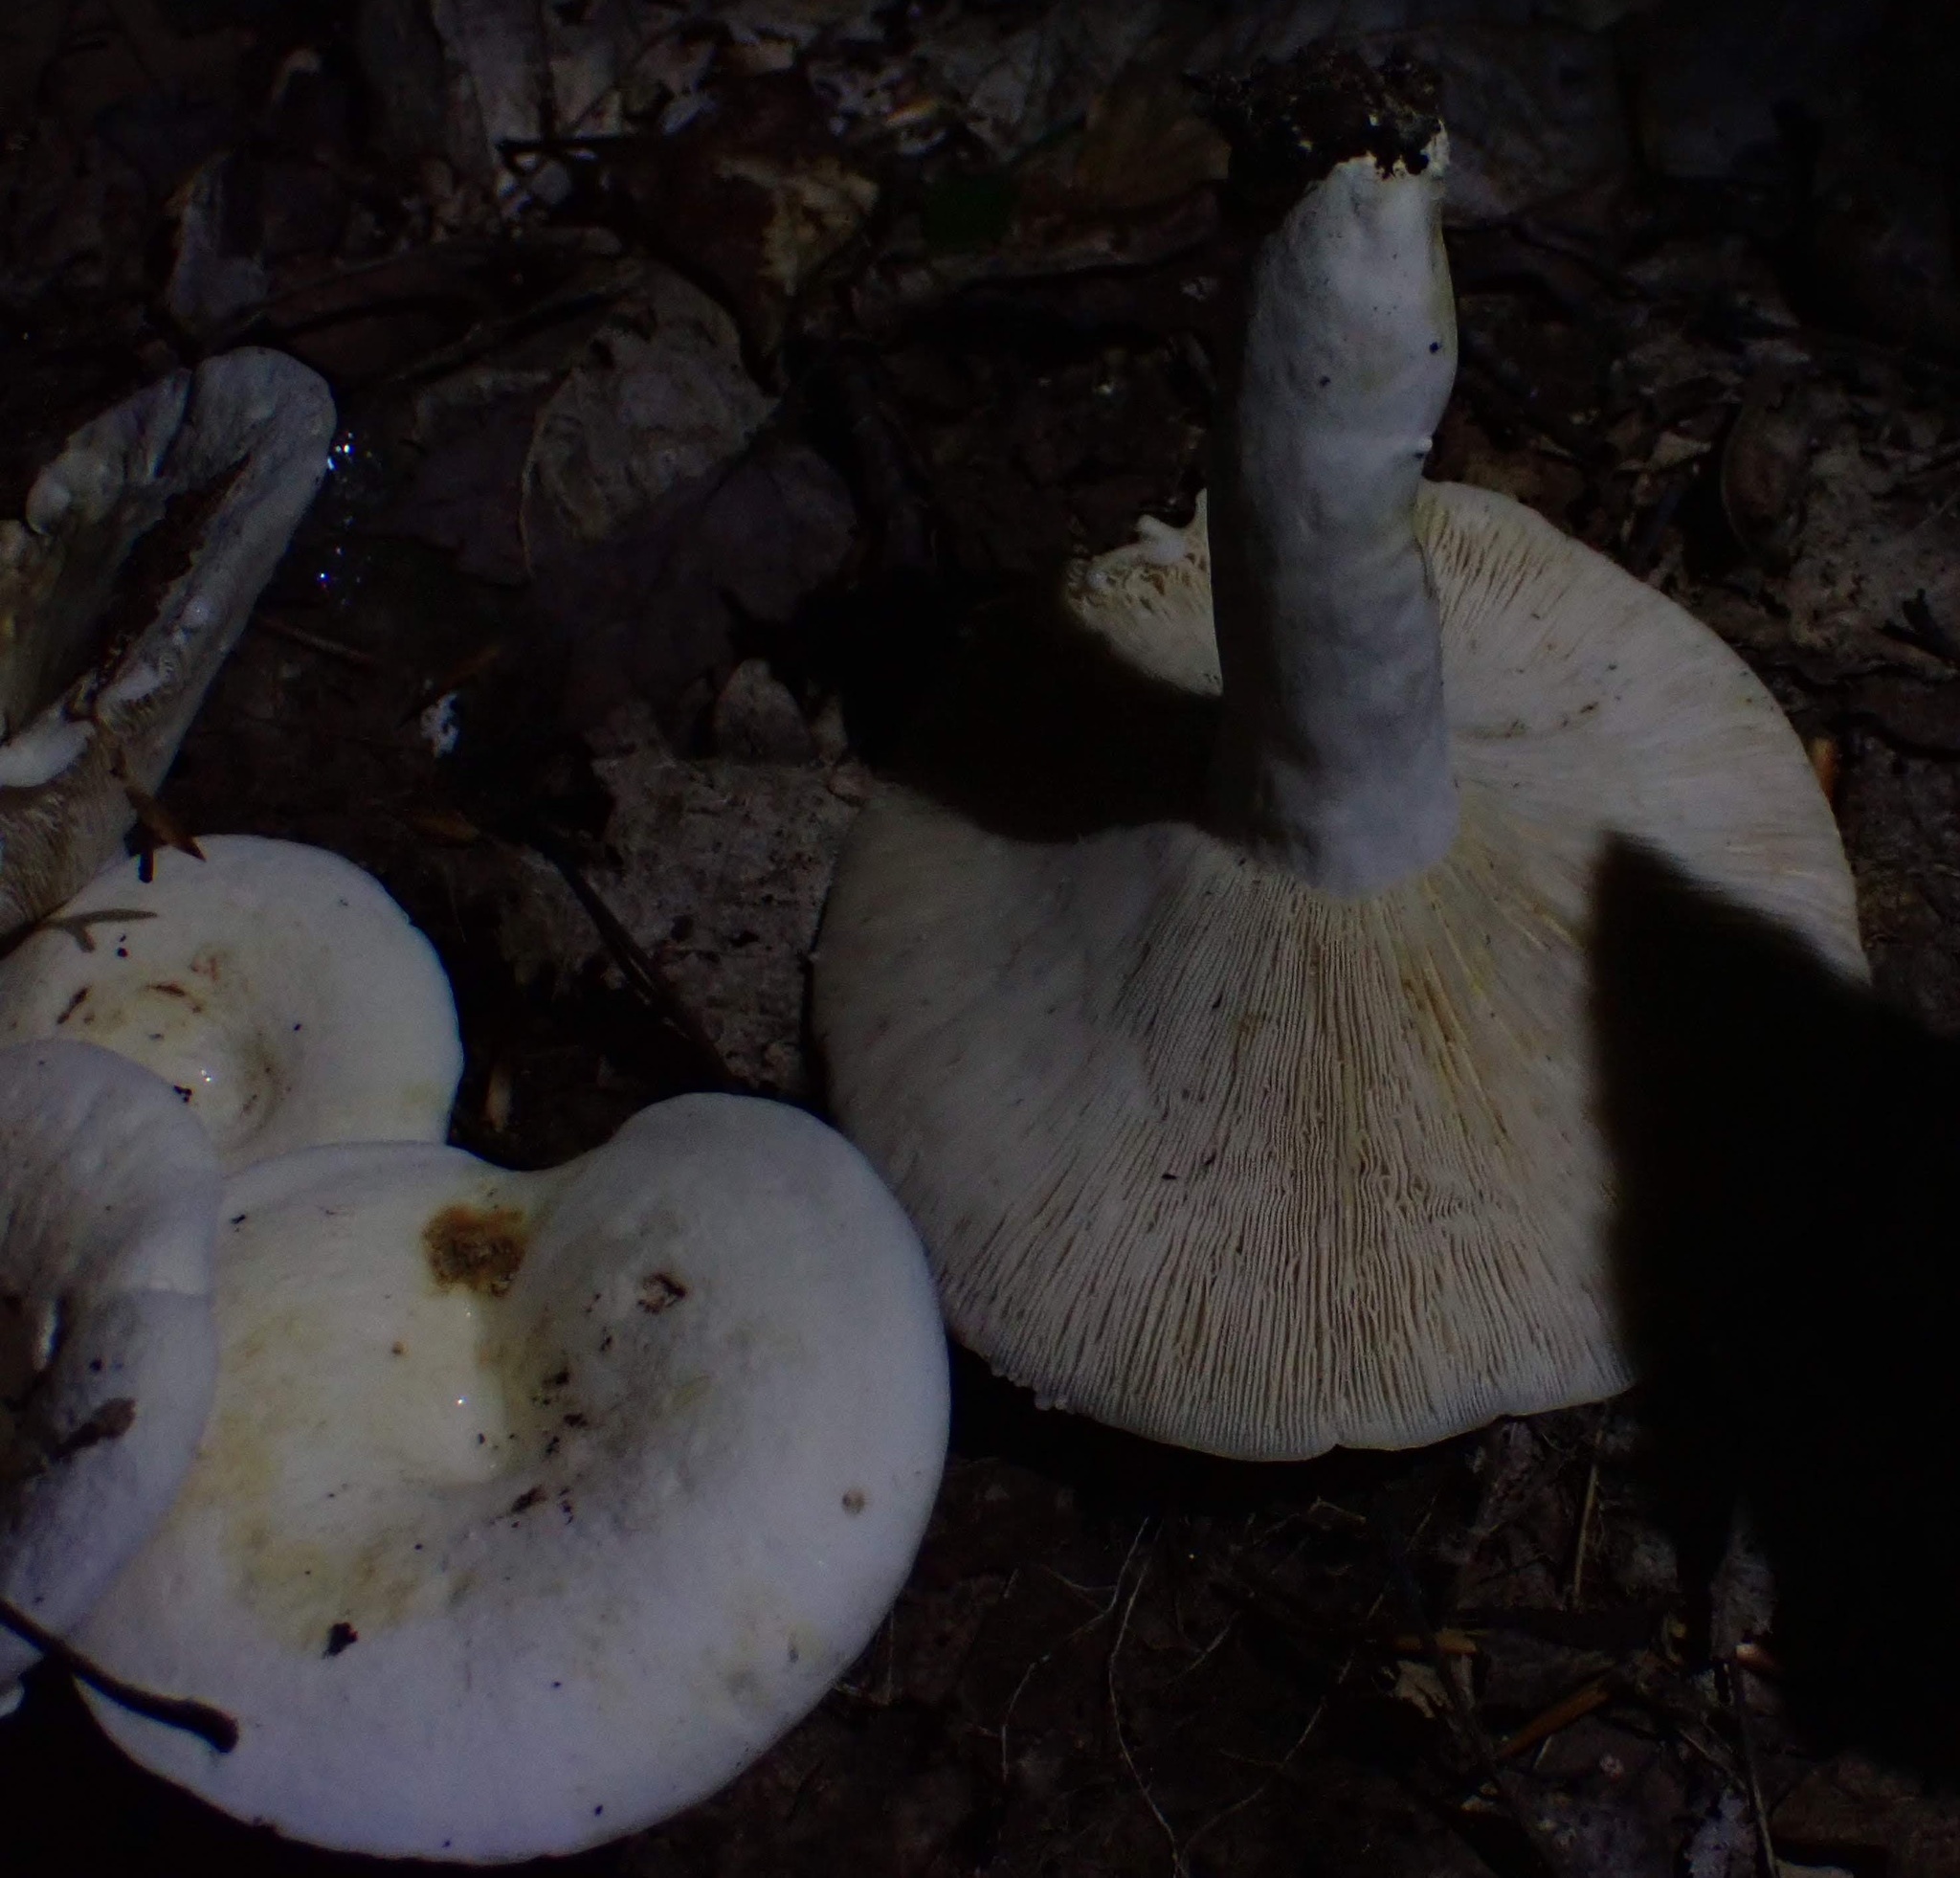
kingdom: Fungi
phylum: Basidiomycota
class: Agaricomycetes
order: Russulales
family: Russulaceae
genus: Lactifluus
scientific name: Lactifluus piperatus
